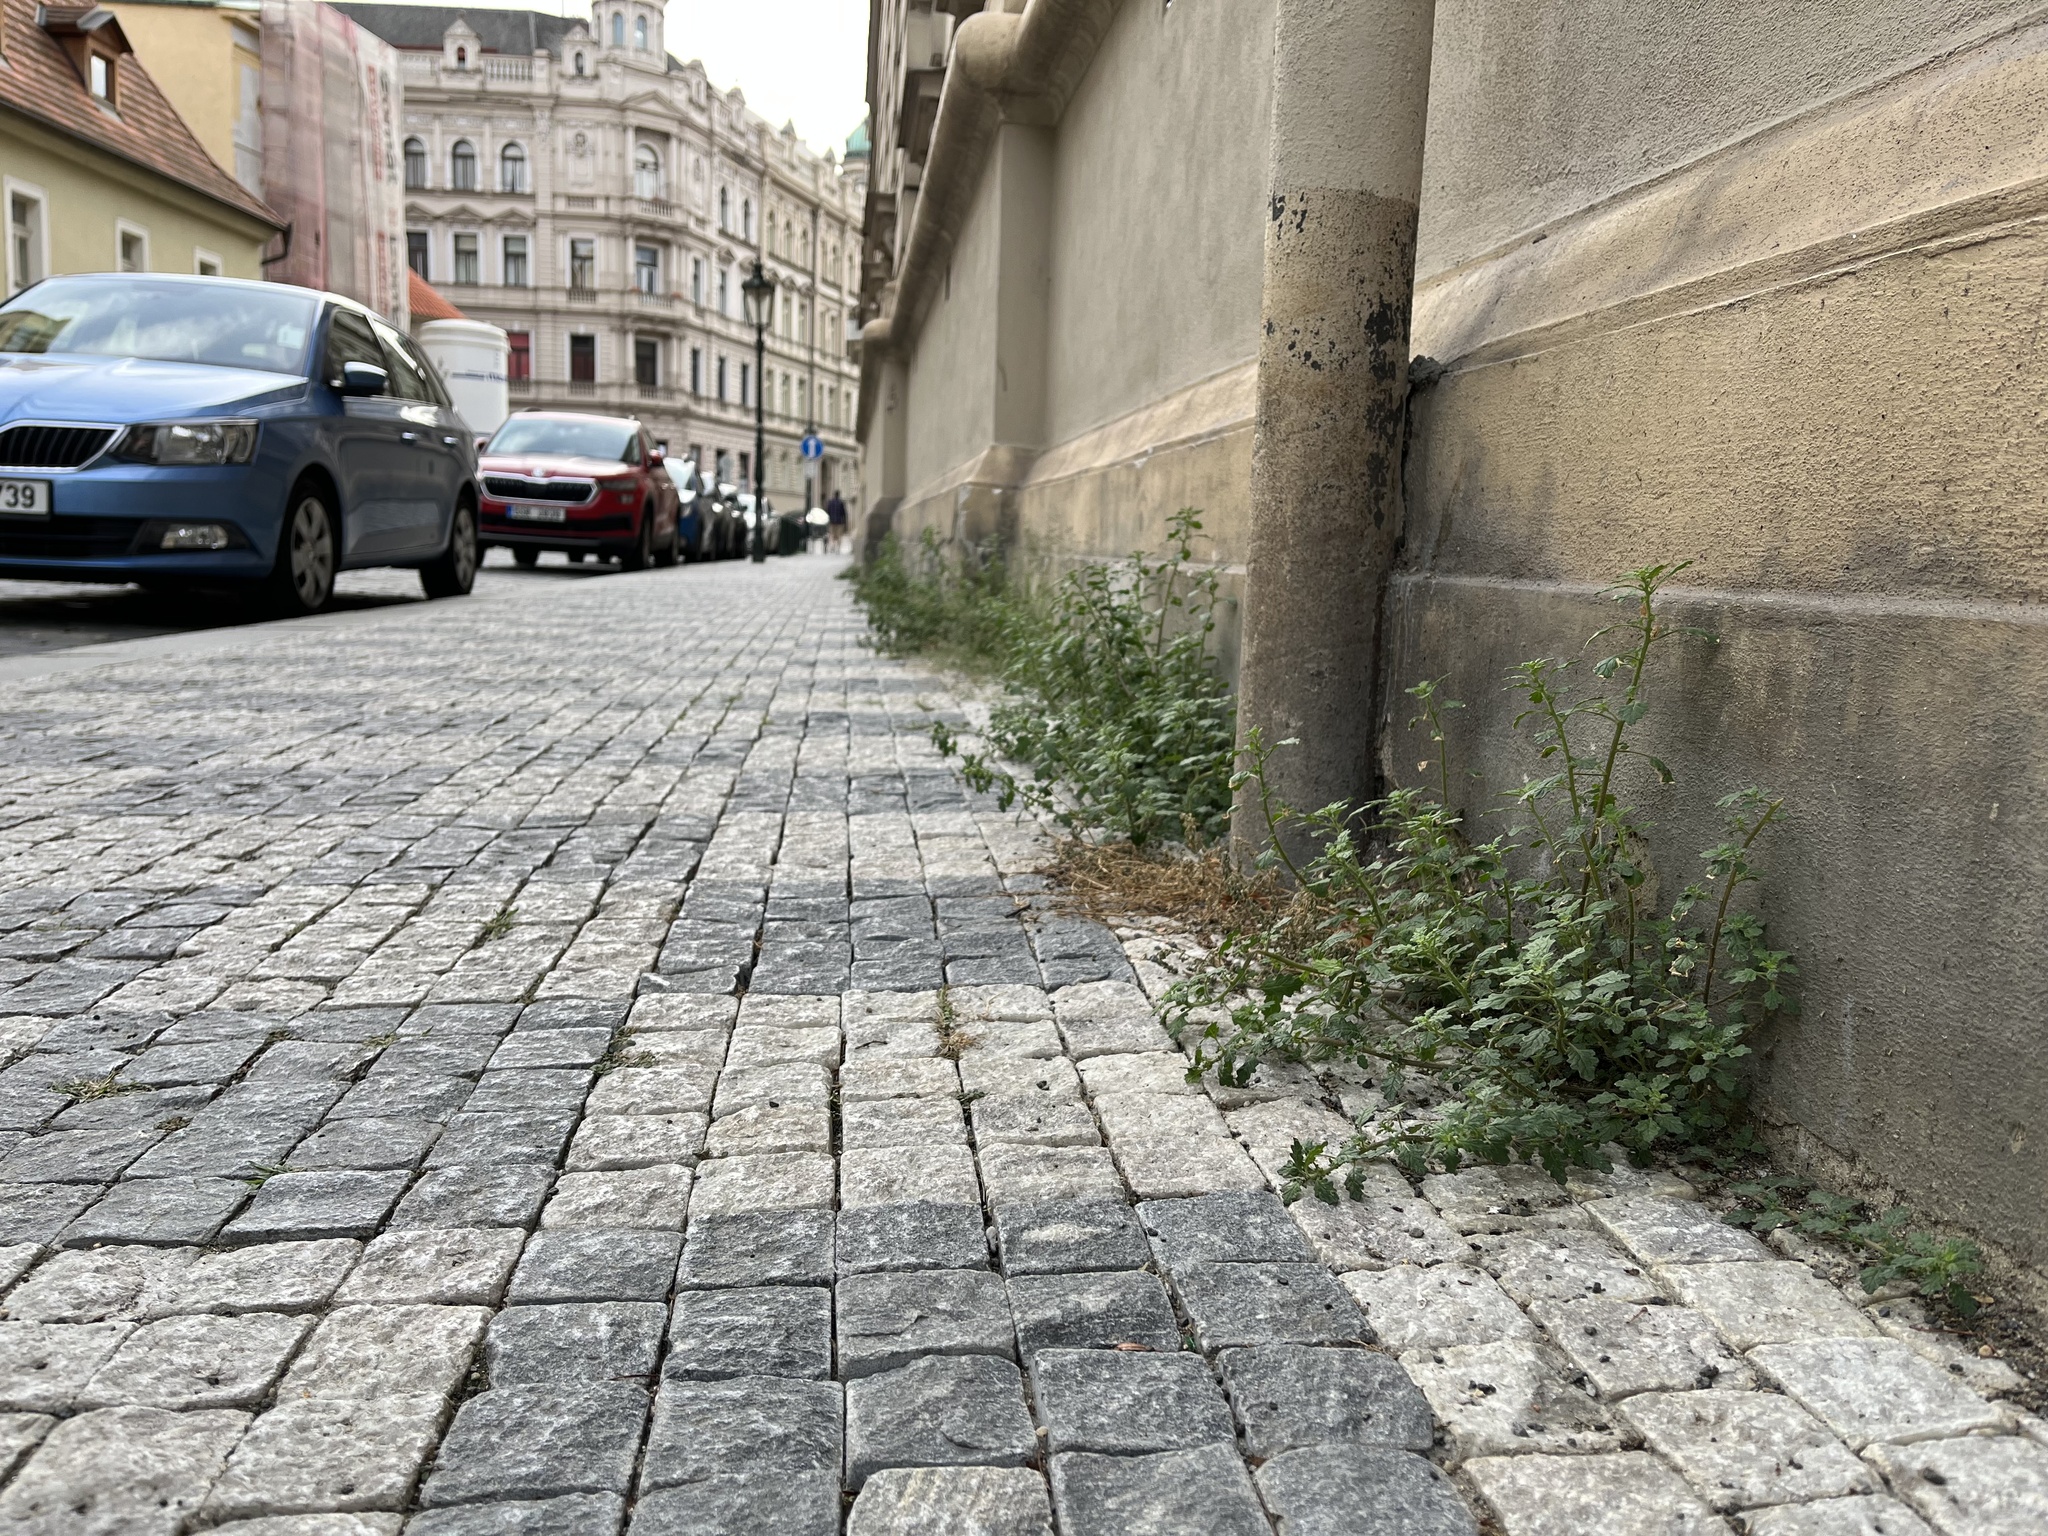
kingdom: Plantae
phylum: Tracheophyta
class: Magnoliopsida
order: Caryophyllales
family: Amaranthaceae
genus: Dysphania
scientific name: Dysphania pumilio
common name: Clammy goosefoot
